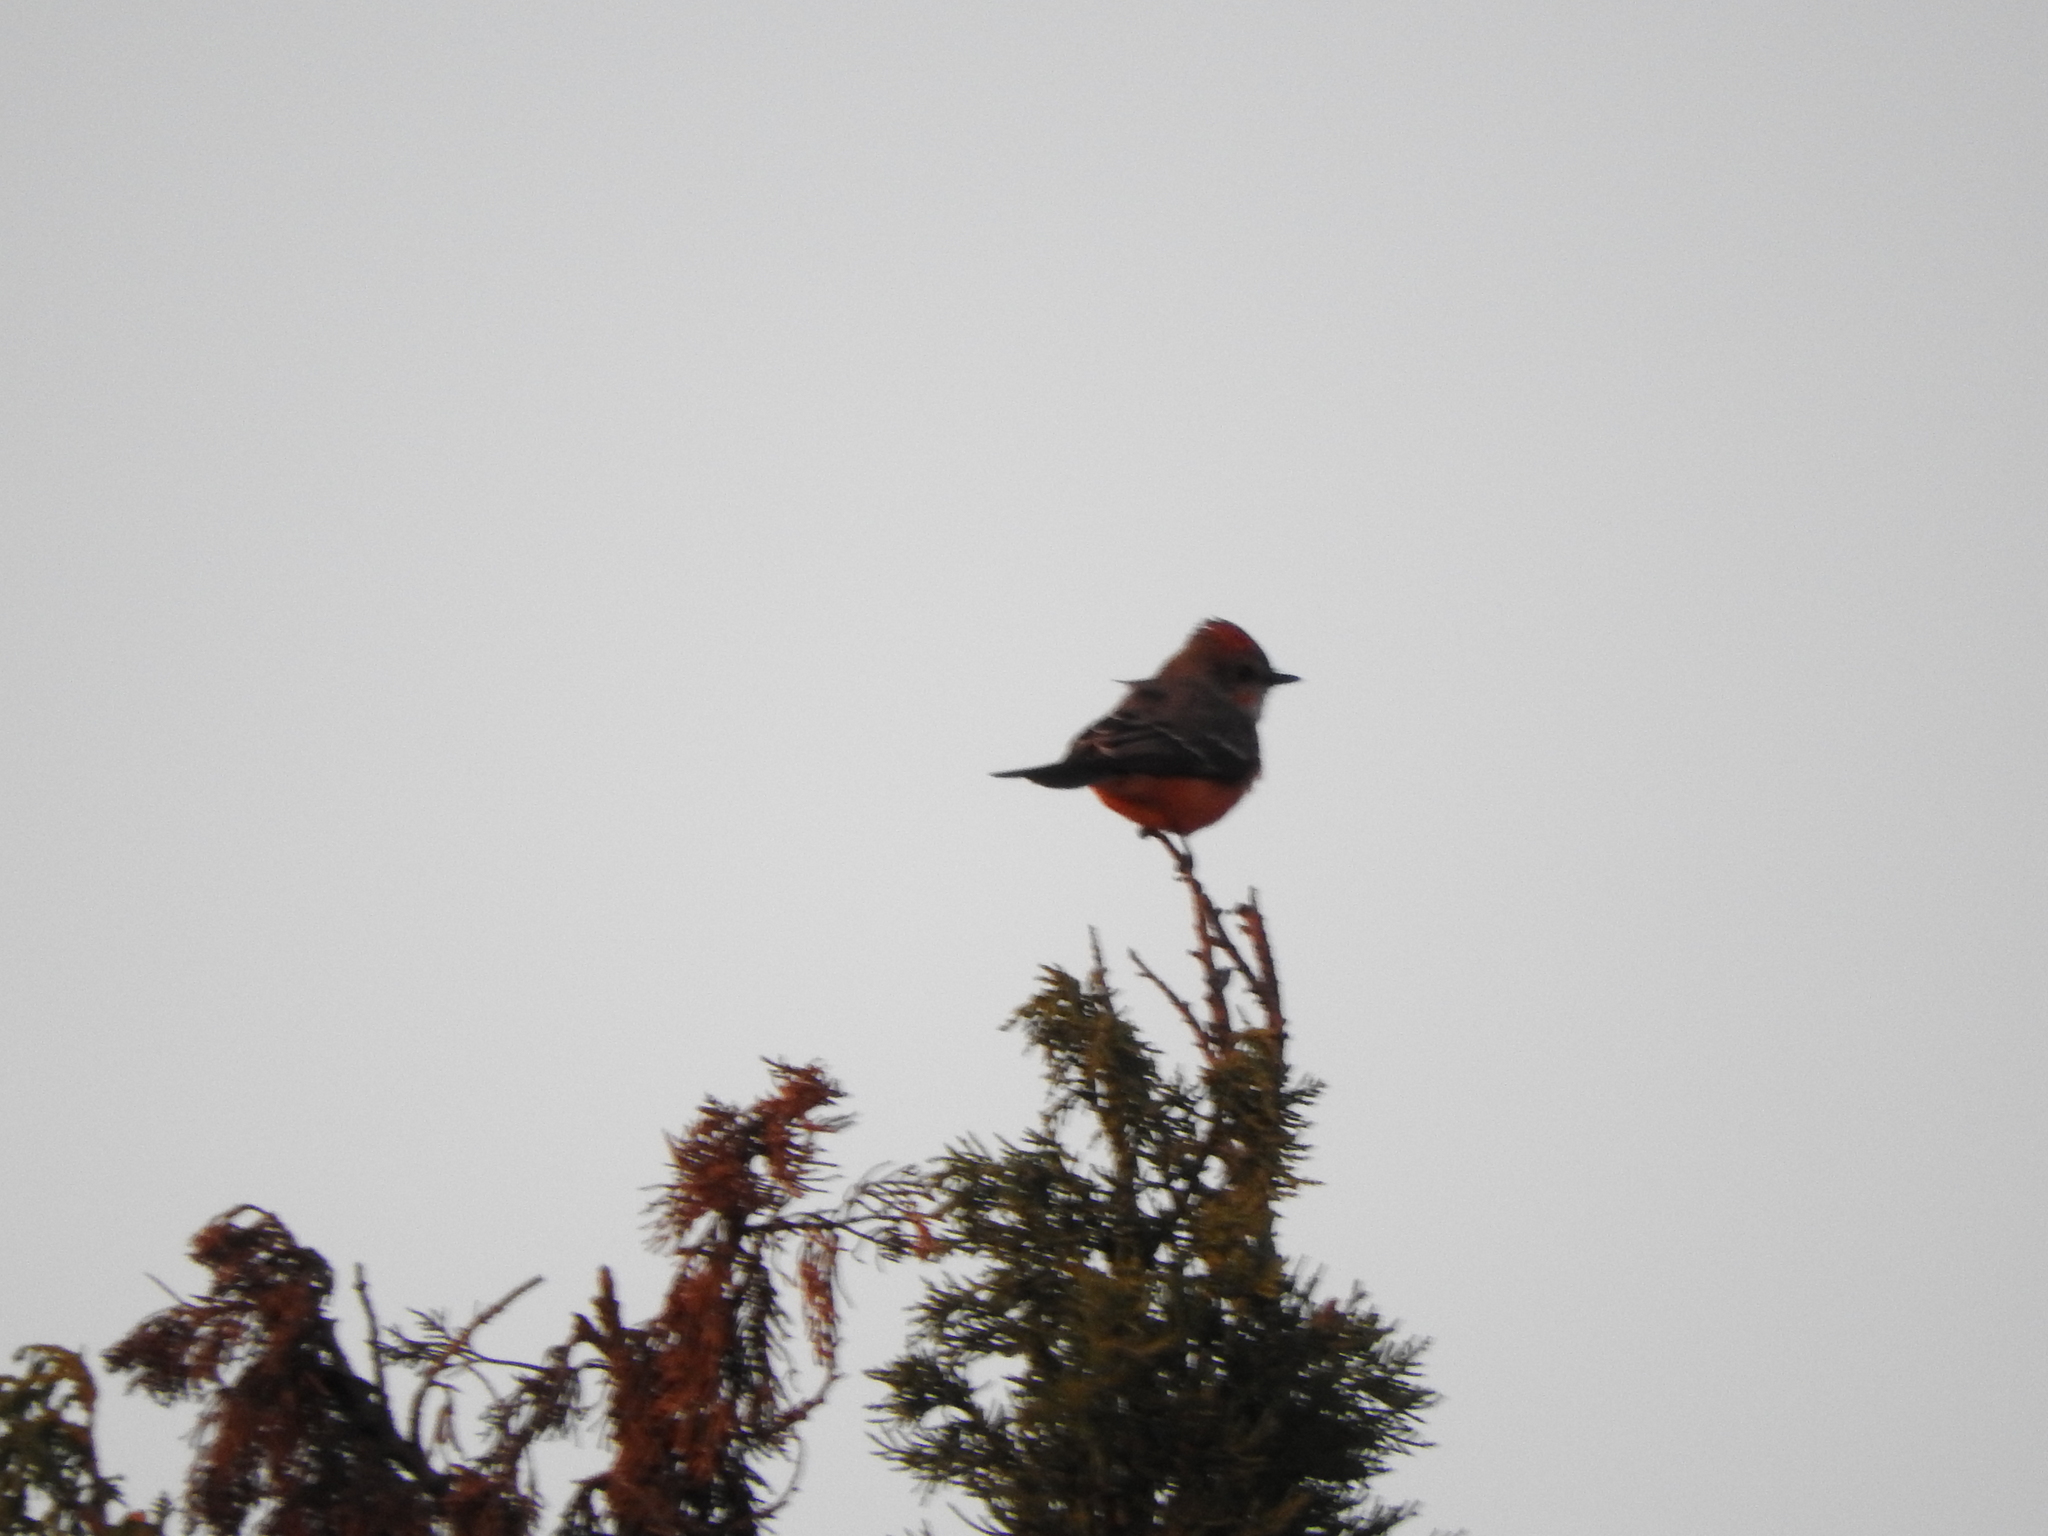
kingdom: Animalia
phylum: Chordata
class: Aves
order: Passeriformes
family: Tyrannidae
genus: Pyrocephalus
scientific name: Pyrocephalus rubinus
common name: Vermilion flycatcher
